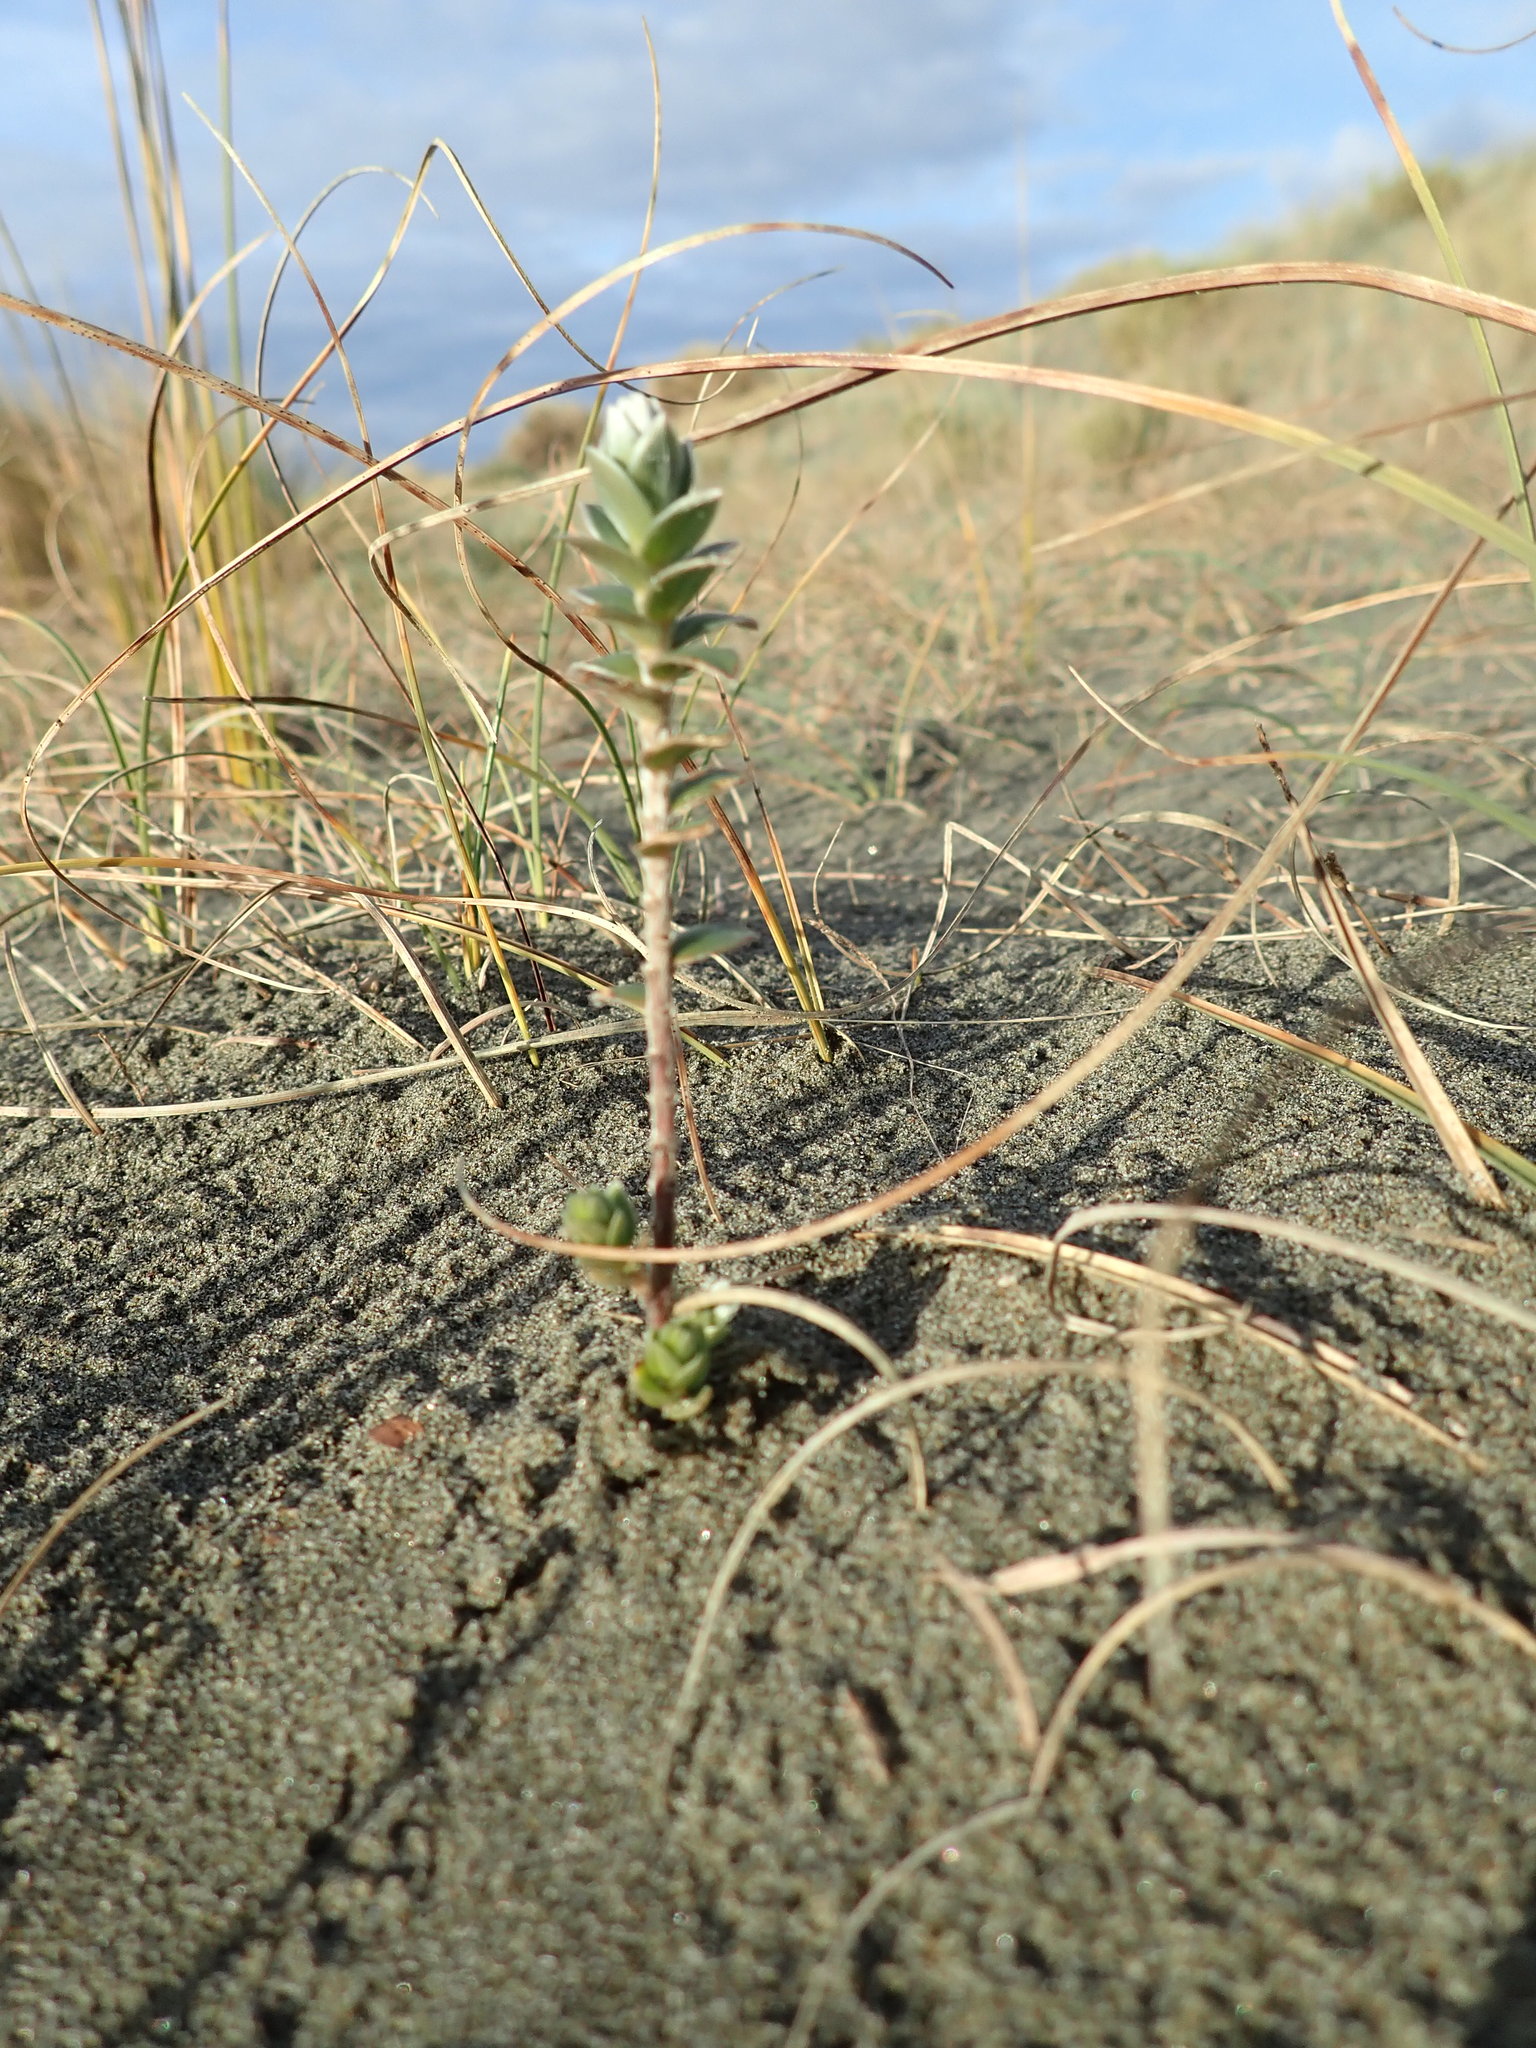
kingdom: Plantae
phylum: Tracheophyta
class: Magnoliopsida
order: Malvales
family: Thymelaeaceae
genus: Pimelea
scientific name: Pimelea villosa
